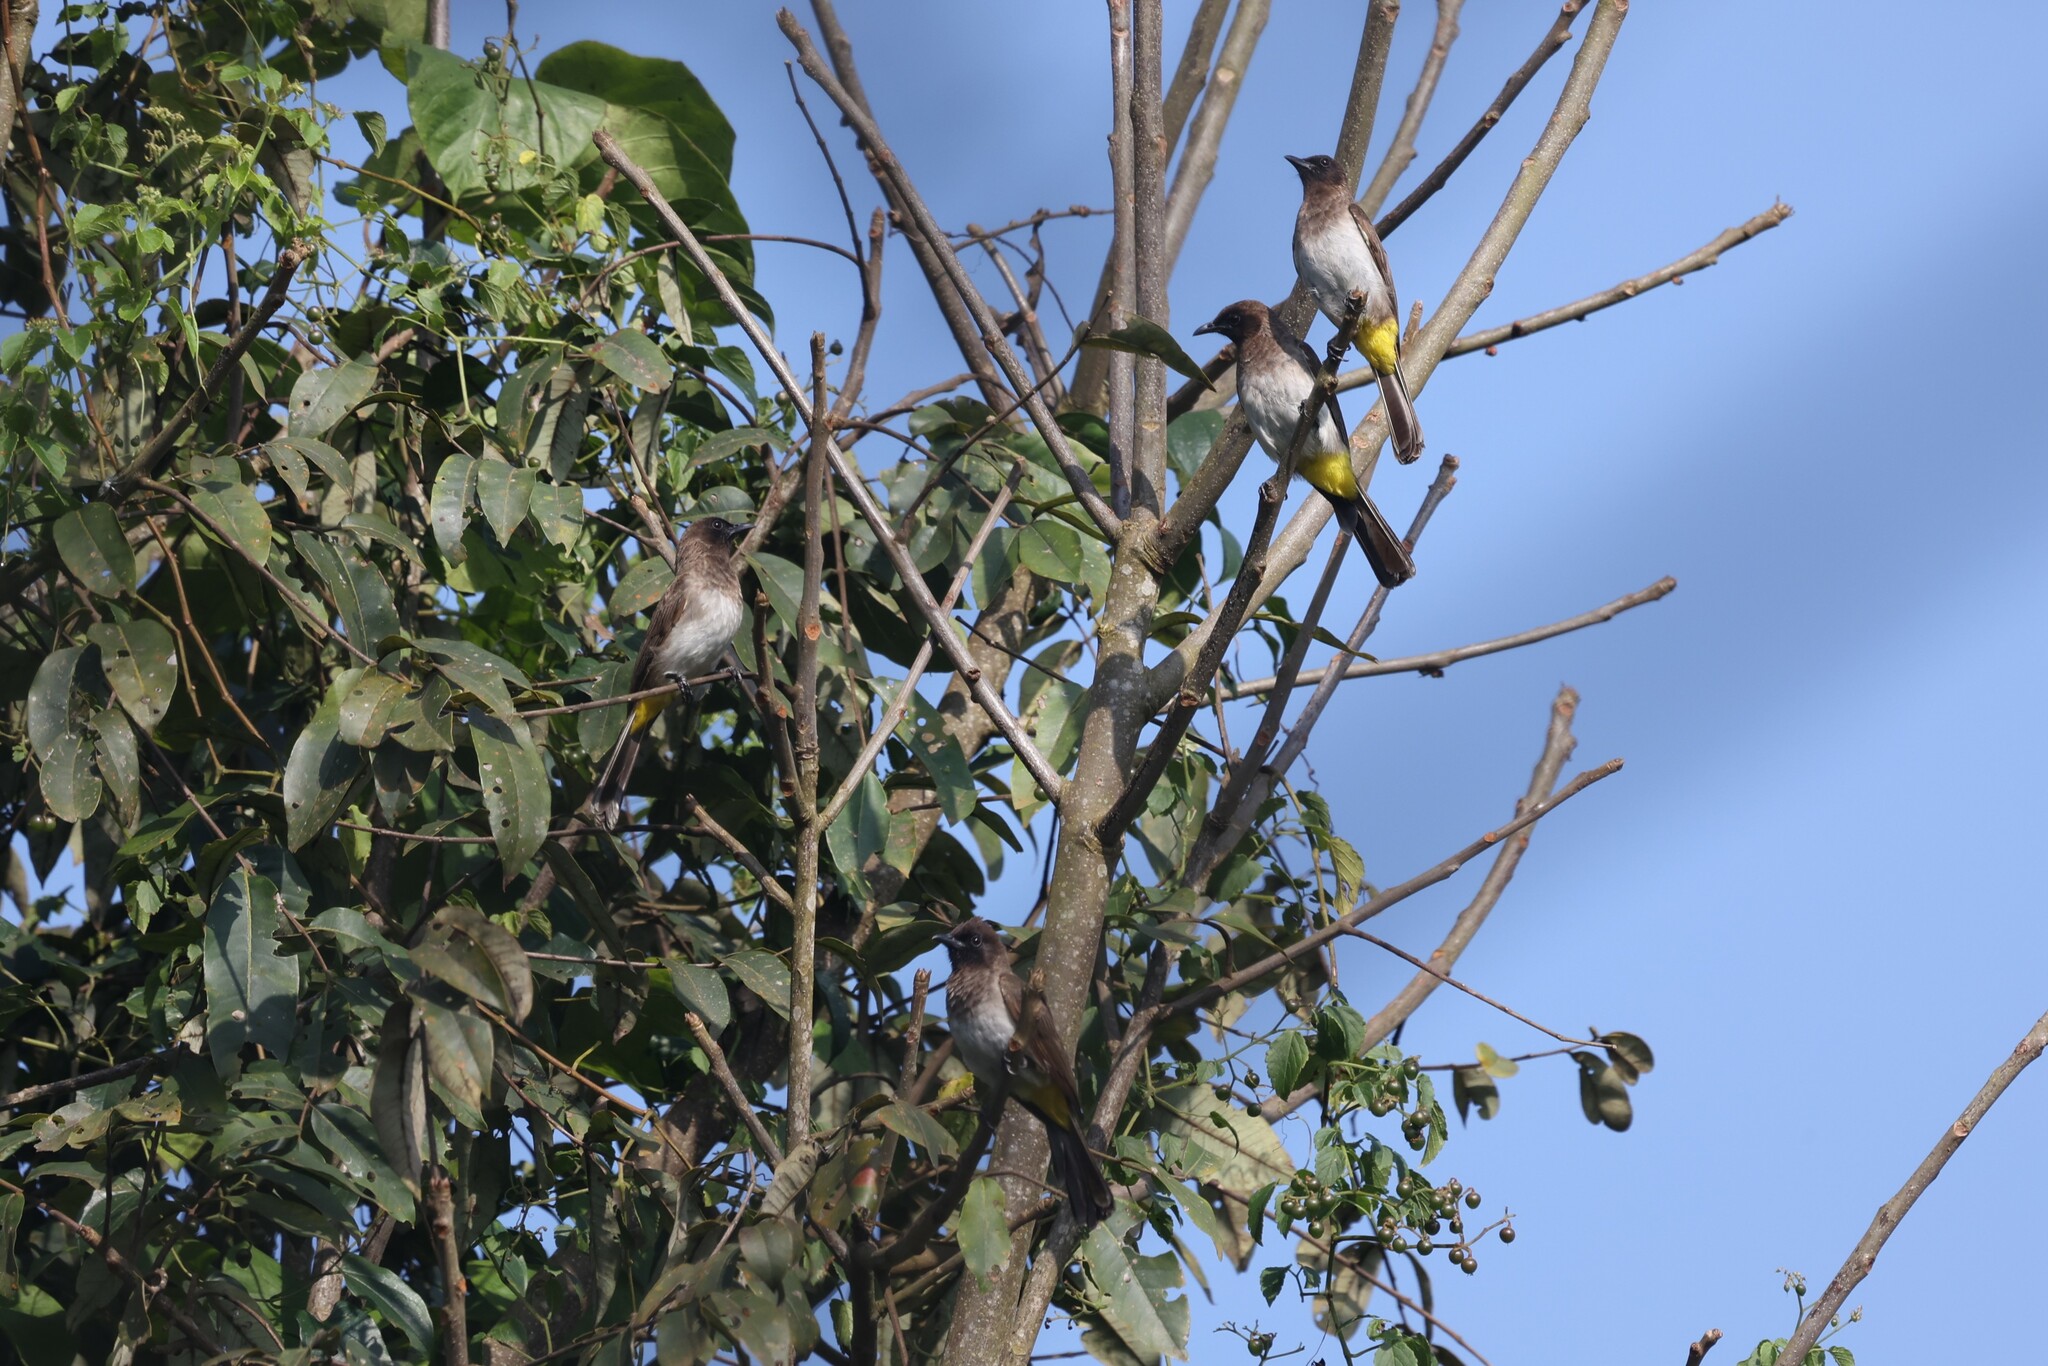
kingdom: Animalia
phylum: Chordata
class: Aves
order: Passeriformes
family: Pycnonotidae
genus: Pycnonotus
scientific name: Pycnonotus barbatus
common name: Common bulbul
